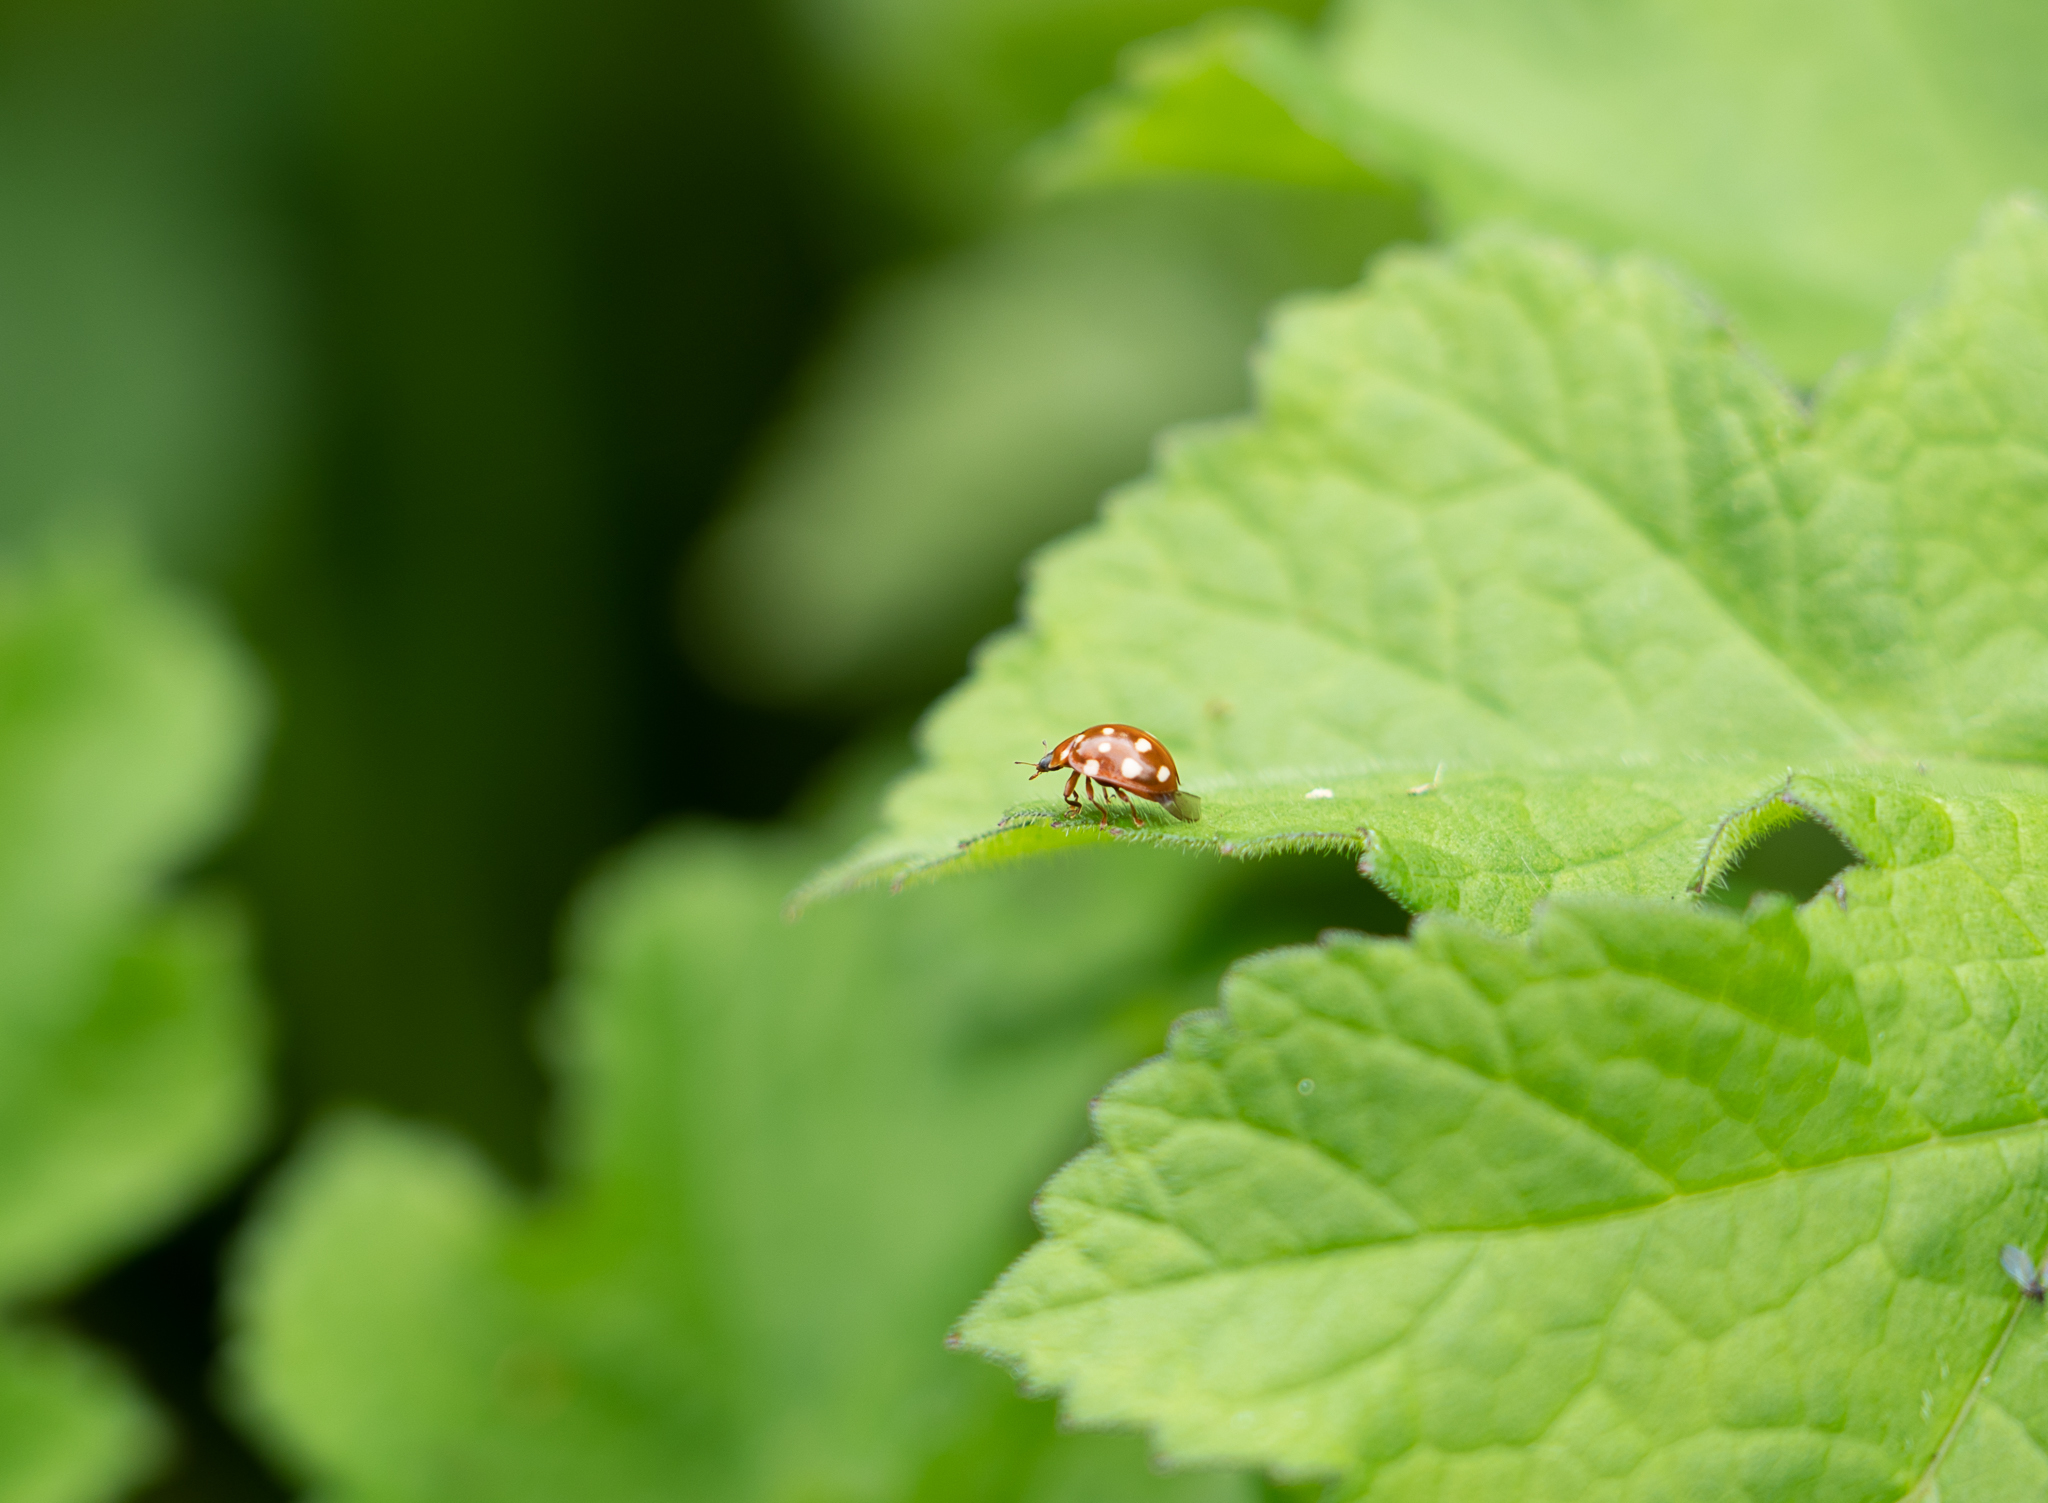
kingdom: Animalia
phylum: Arthropoda
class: Insecta
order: Coleoptera
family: Coccinellidae
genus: Calvia
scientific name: Calvia quatuordecimguttata
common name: Cream-spot ladybird
